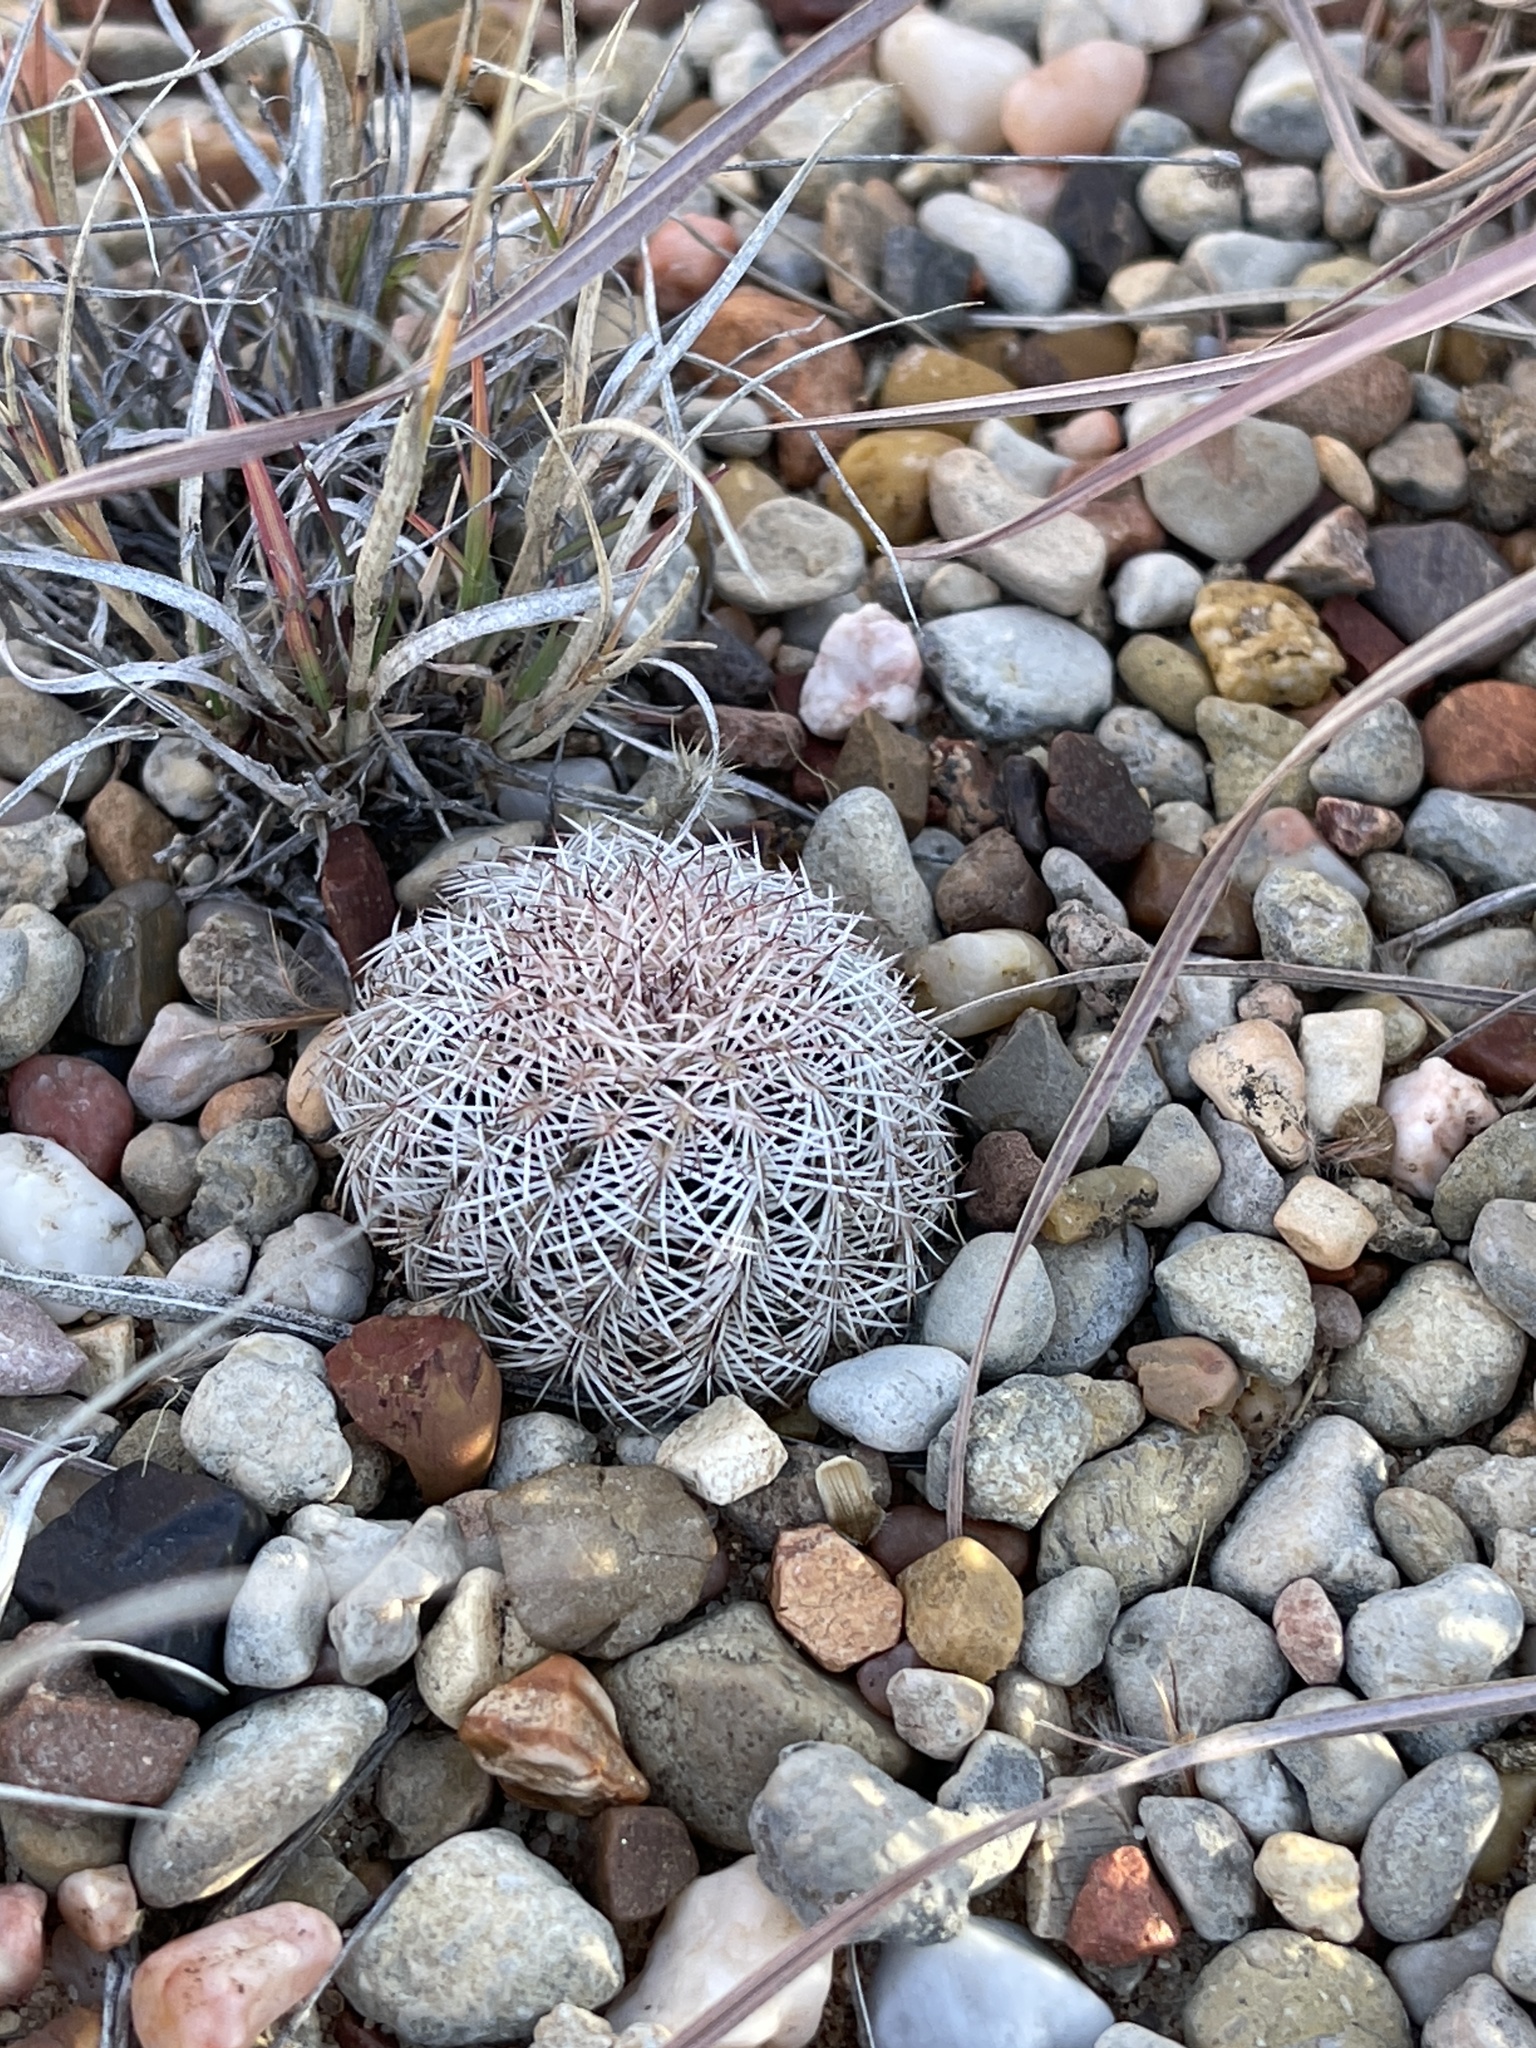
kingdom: Plantae
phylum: Tracheophyta
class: Magnoliopsida
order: Caryophyllales
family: Cactaceae
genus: Echinocereus
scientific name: Echinocereus reichenbachii
